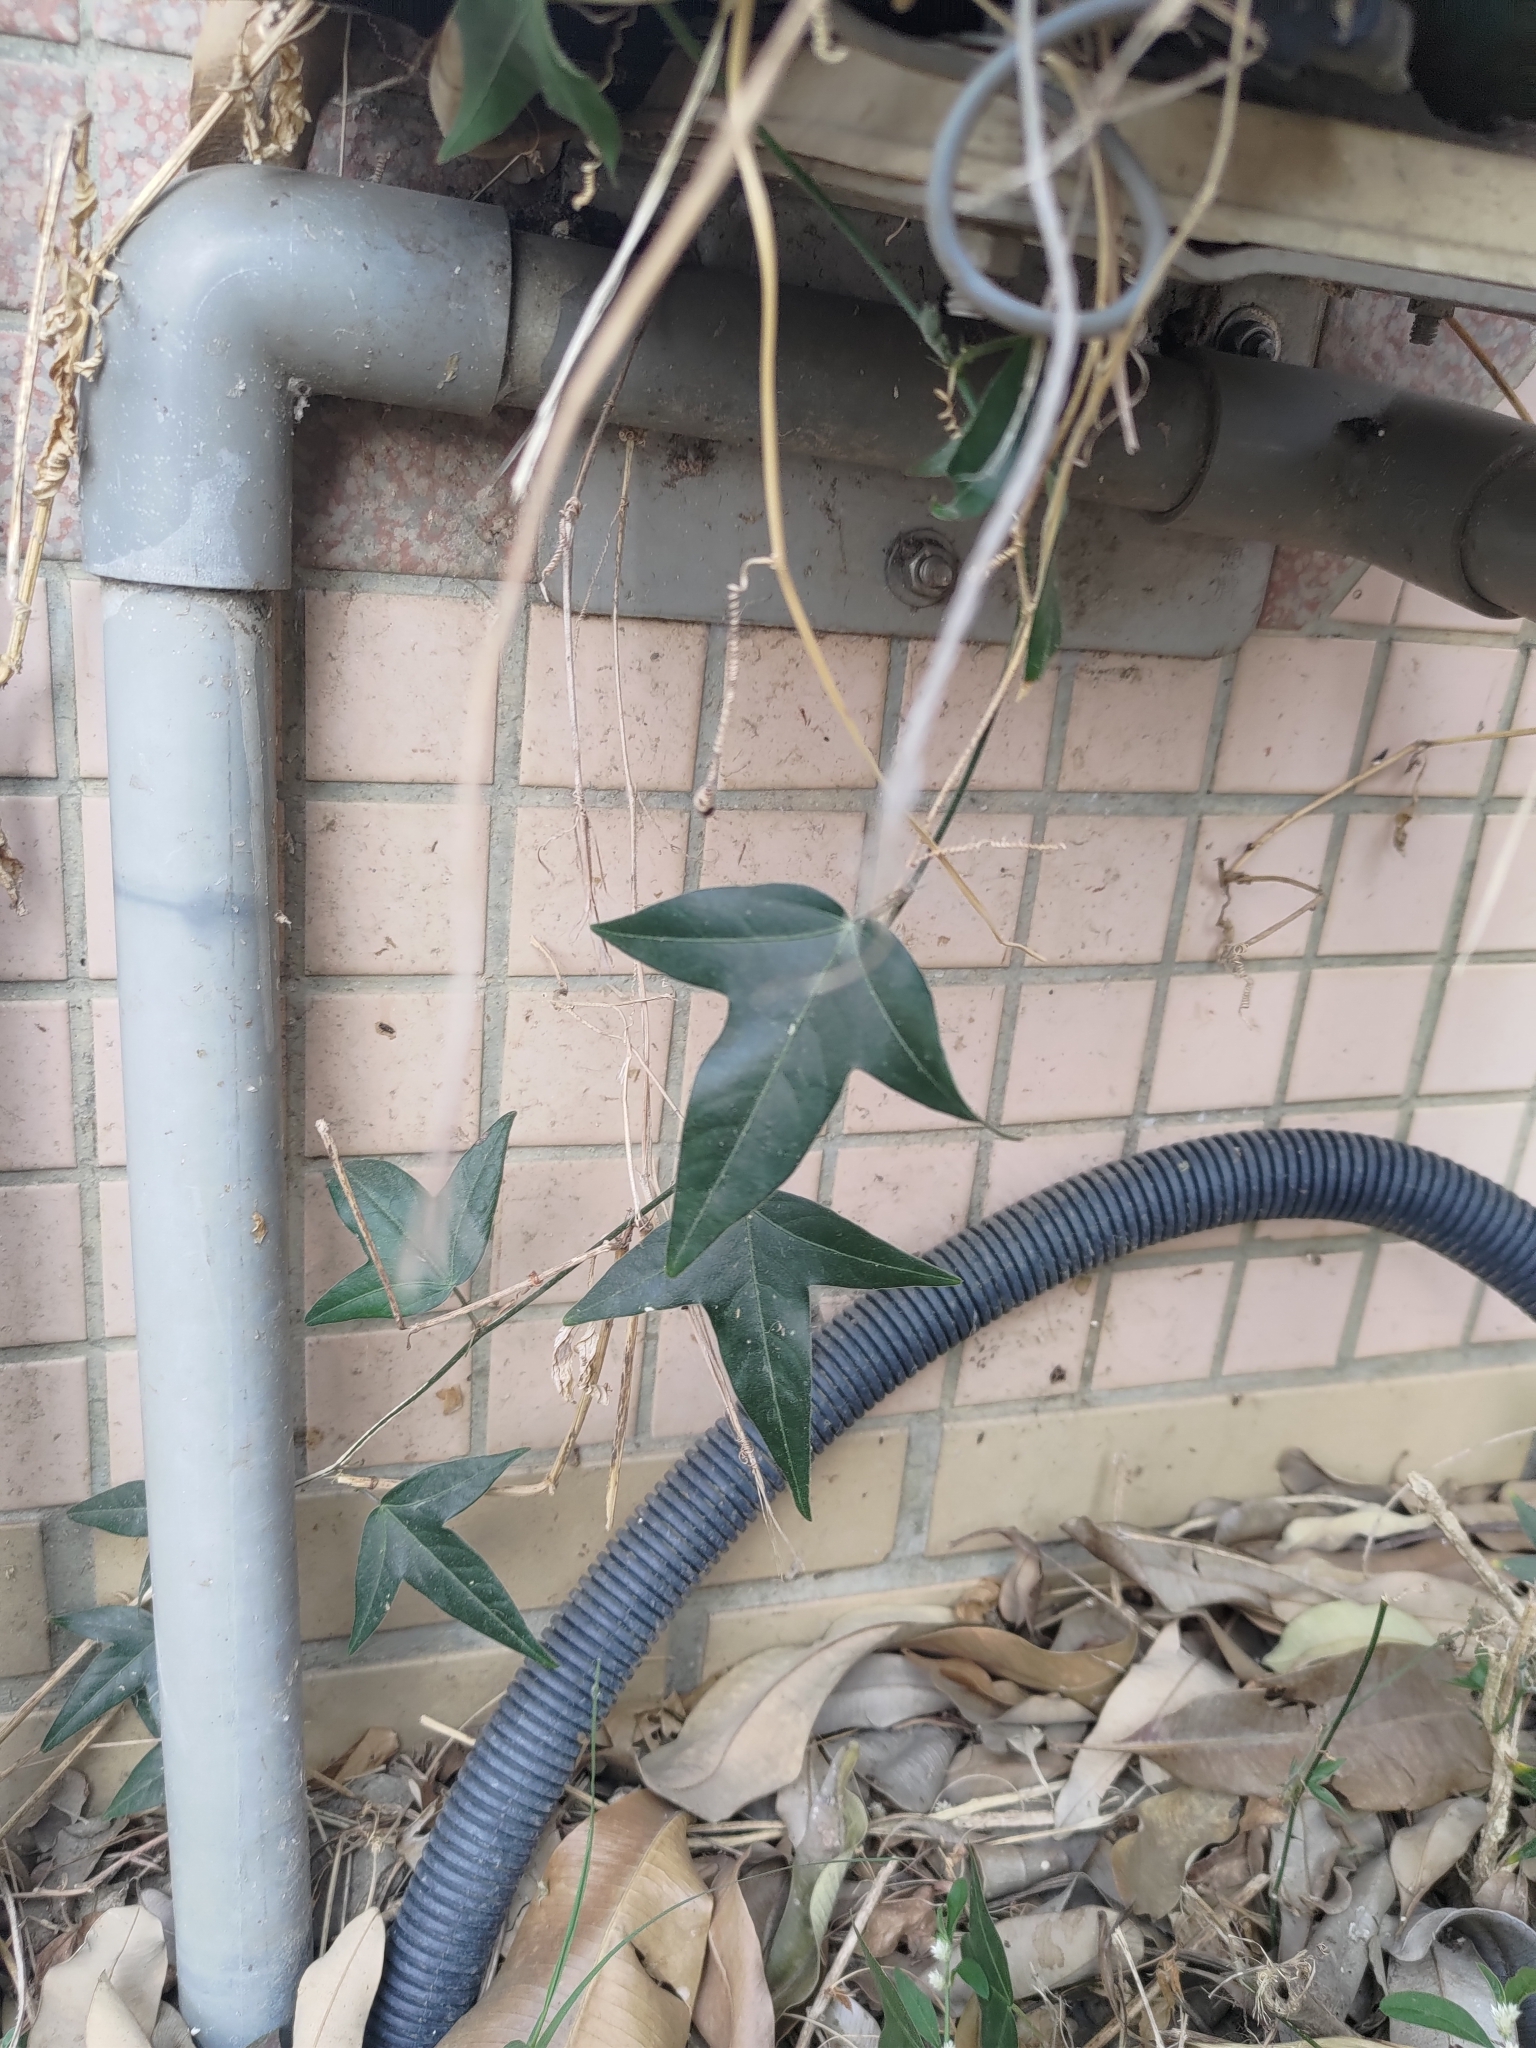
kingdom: Plantae
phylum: Tracheophyta
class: Magnoliopsida
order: Malpighiales
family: Passifloraceae
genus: Passiflora
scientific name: Passiflora suberosa
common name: Wild passionfruit
